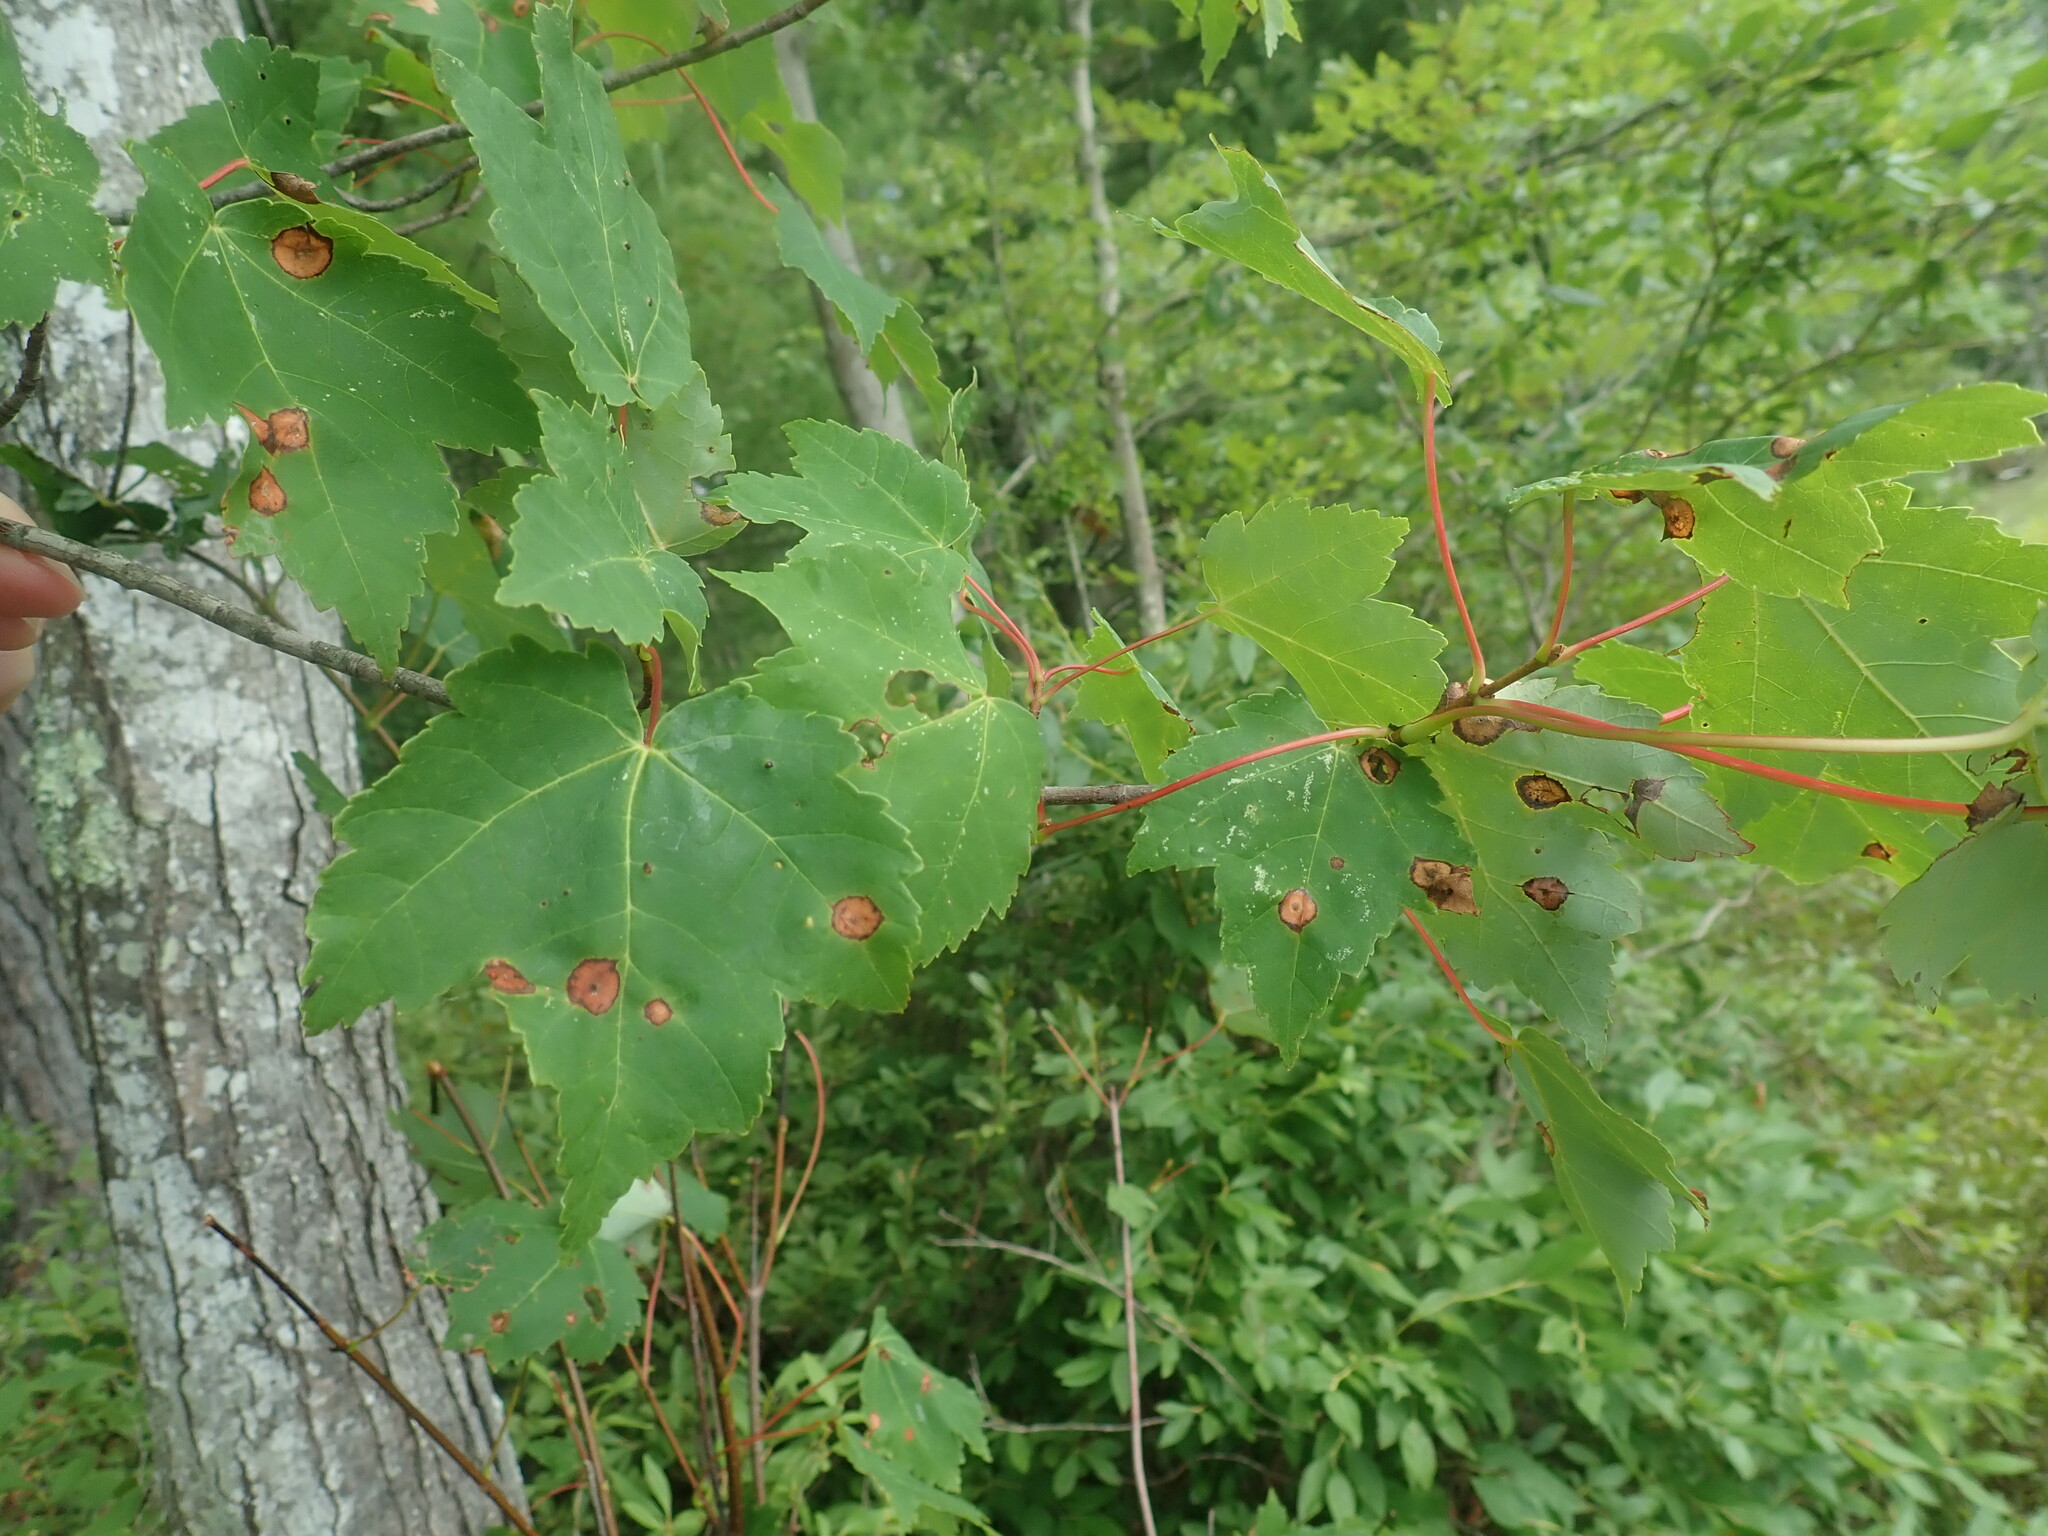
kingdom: Plantae
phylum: Tracheophyta
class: Magnoliopsida
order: Sapindales
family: Sapindaceae
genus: Acer
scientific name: Acer rubrum
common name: Red maple
